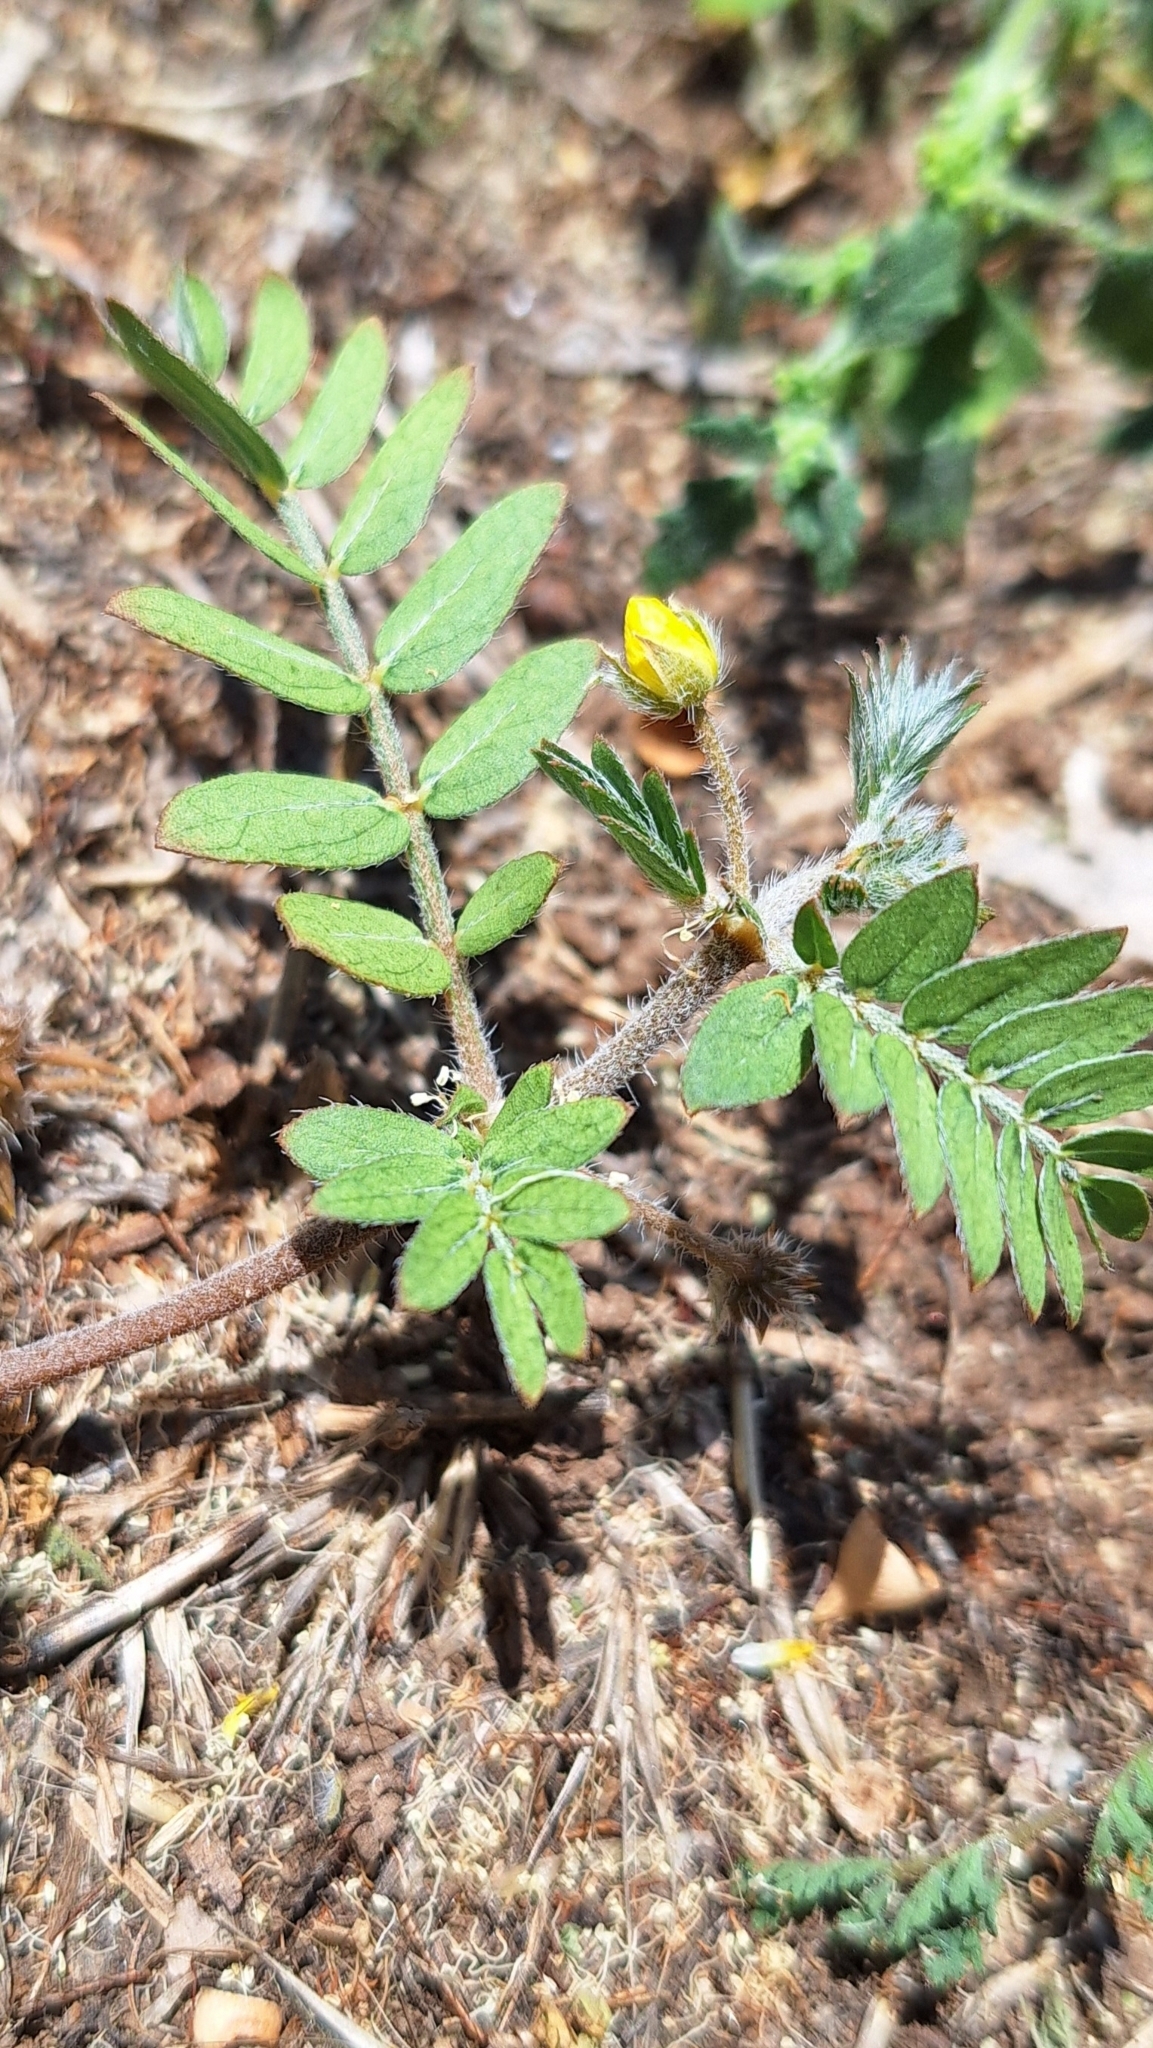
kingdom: Plantae
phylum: Tracheophyta
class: Magnoliopsida
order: Zygophyllales
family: Zygophyllaceae
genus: Tribulus
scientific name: Tribulus terrestris
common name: Puncturevine
